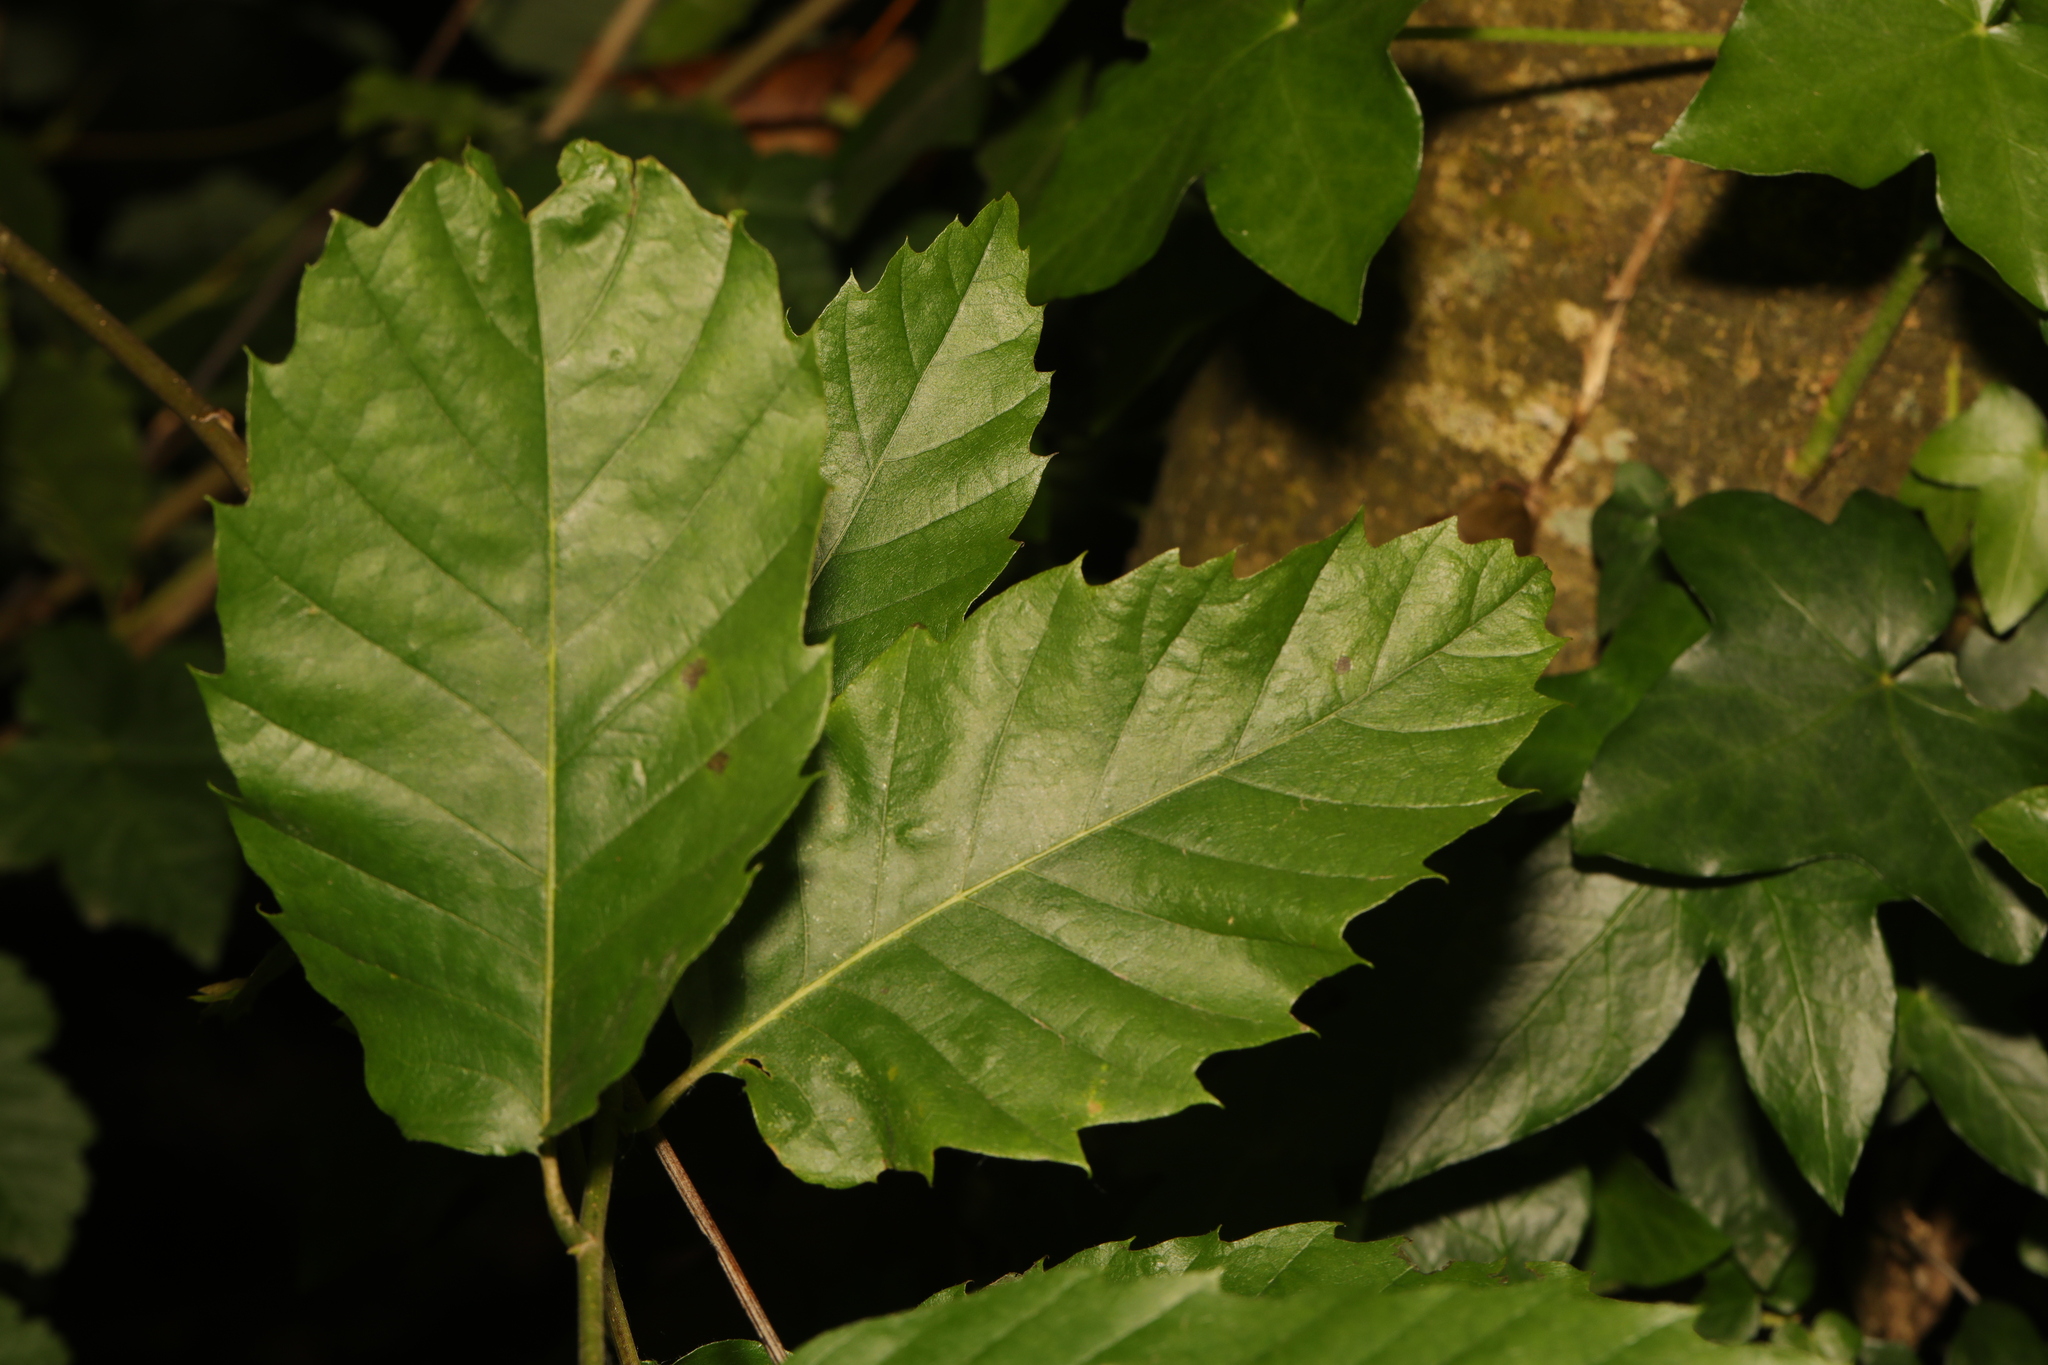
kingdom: Plantae
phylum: Tracheophyta
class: Magnoliopsida
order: Fagales
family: Fagaceae
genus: Castanea
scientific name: Castanea sativa
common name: Sweet chestnut
